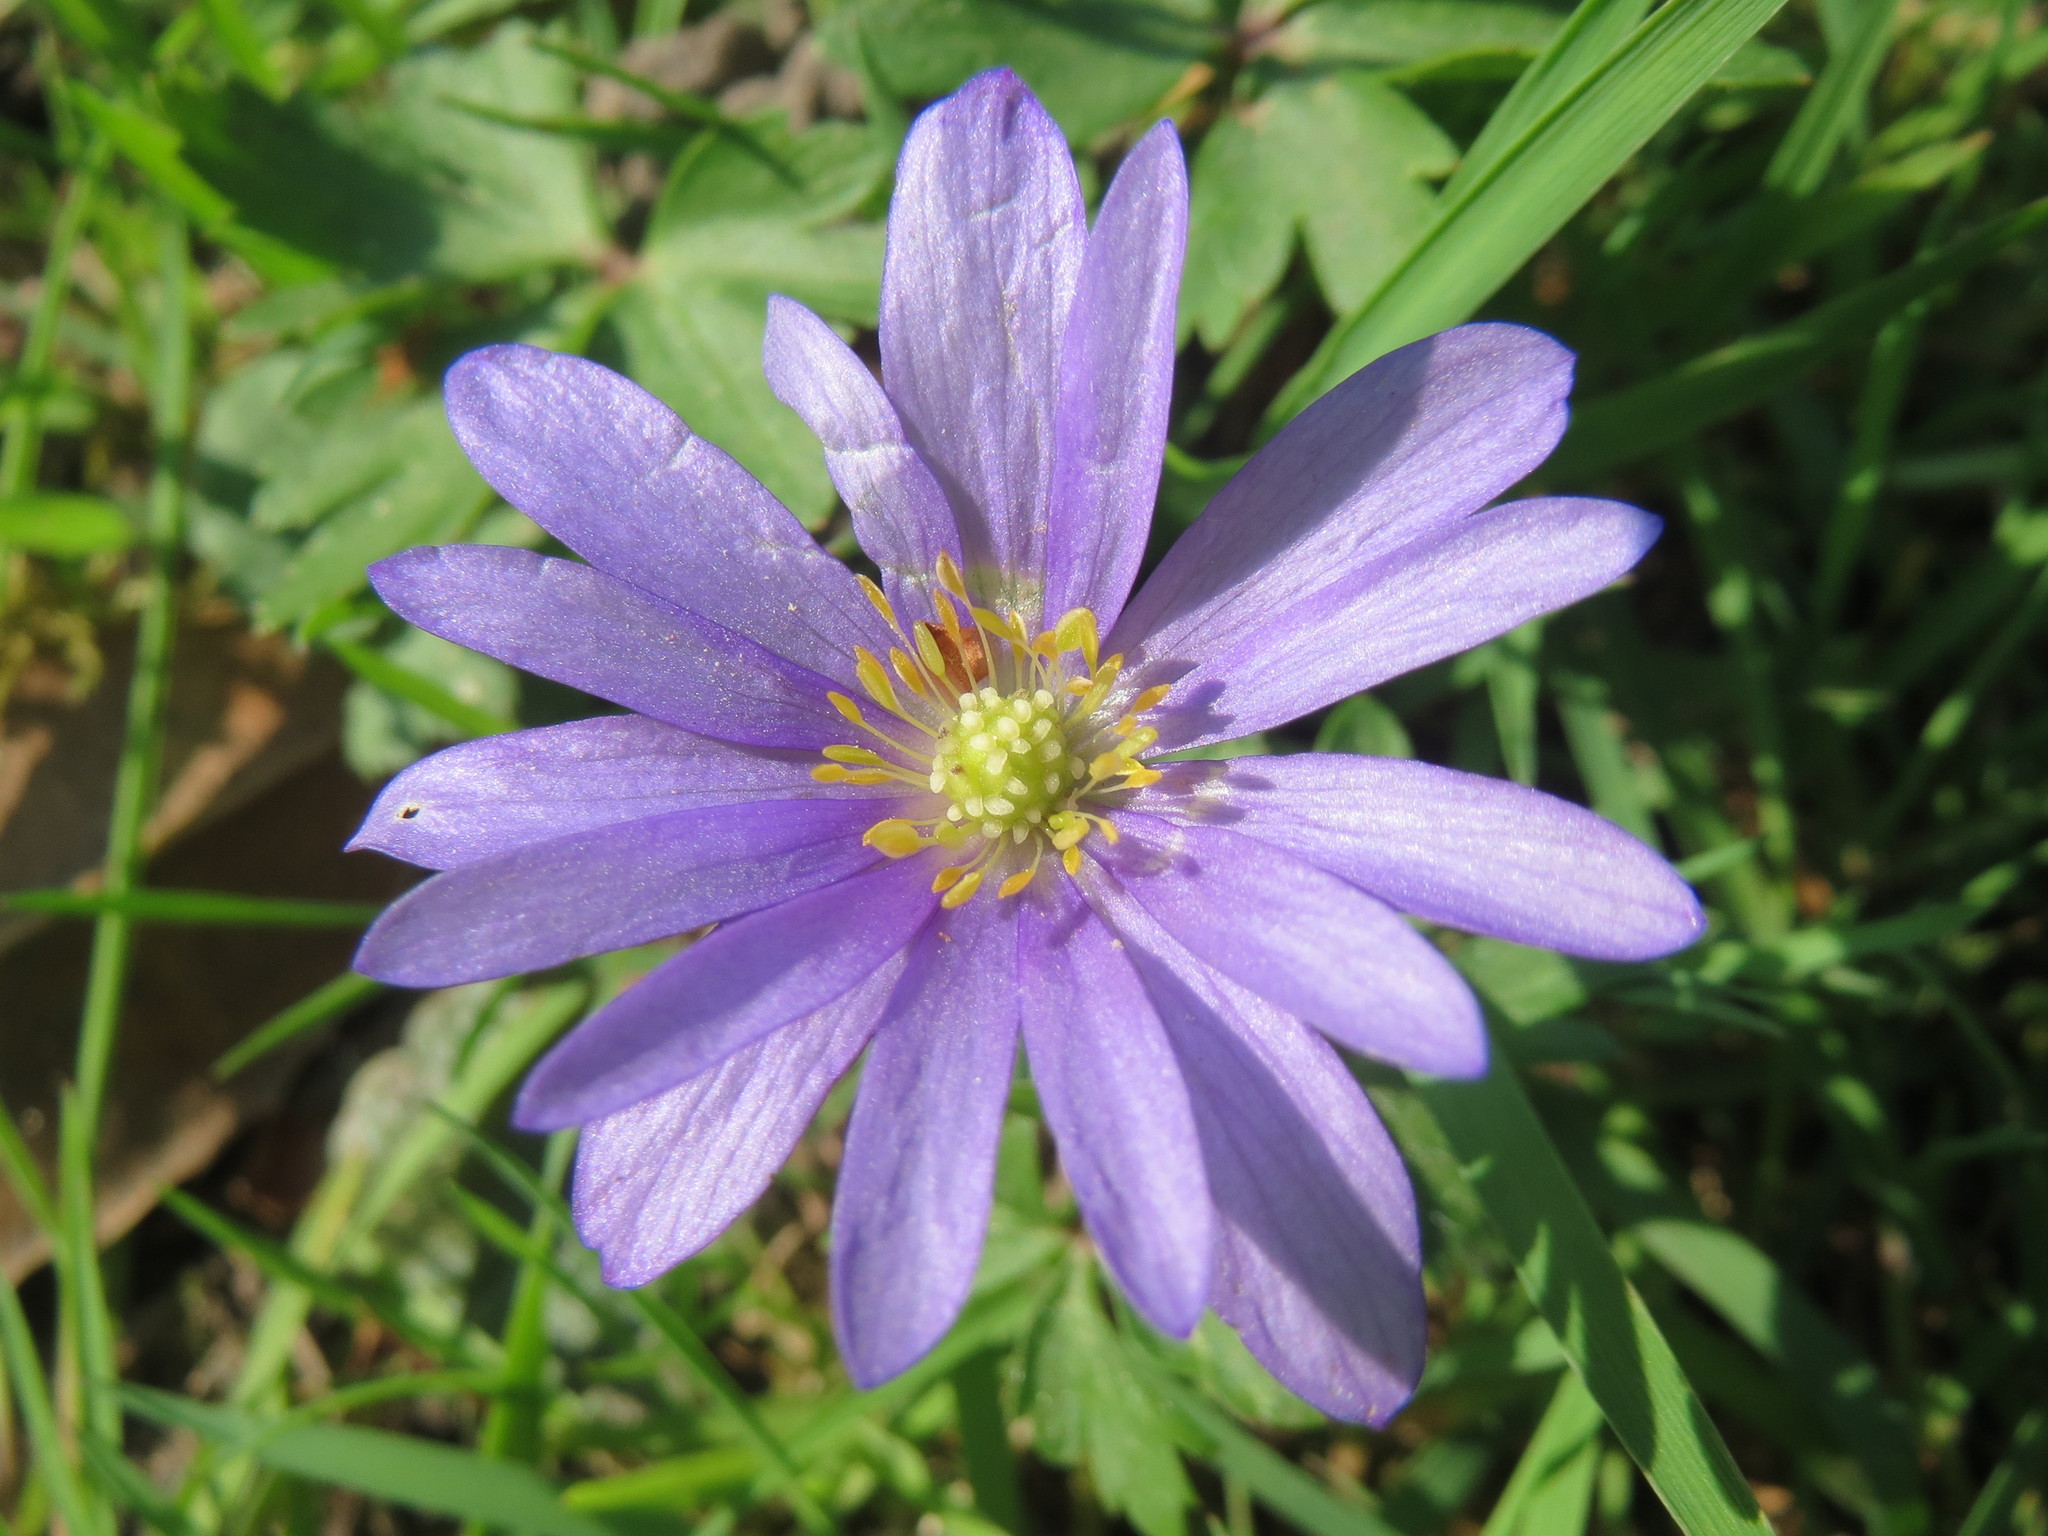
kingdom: Plantae
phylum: Tracheophyta
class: Magnoliopsida
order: Ranunculales
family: Ranunculaceae
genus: Anemone
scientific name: Anemone blanda
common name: Balkan anemone
